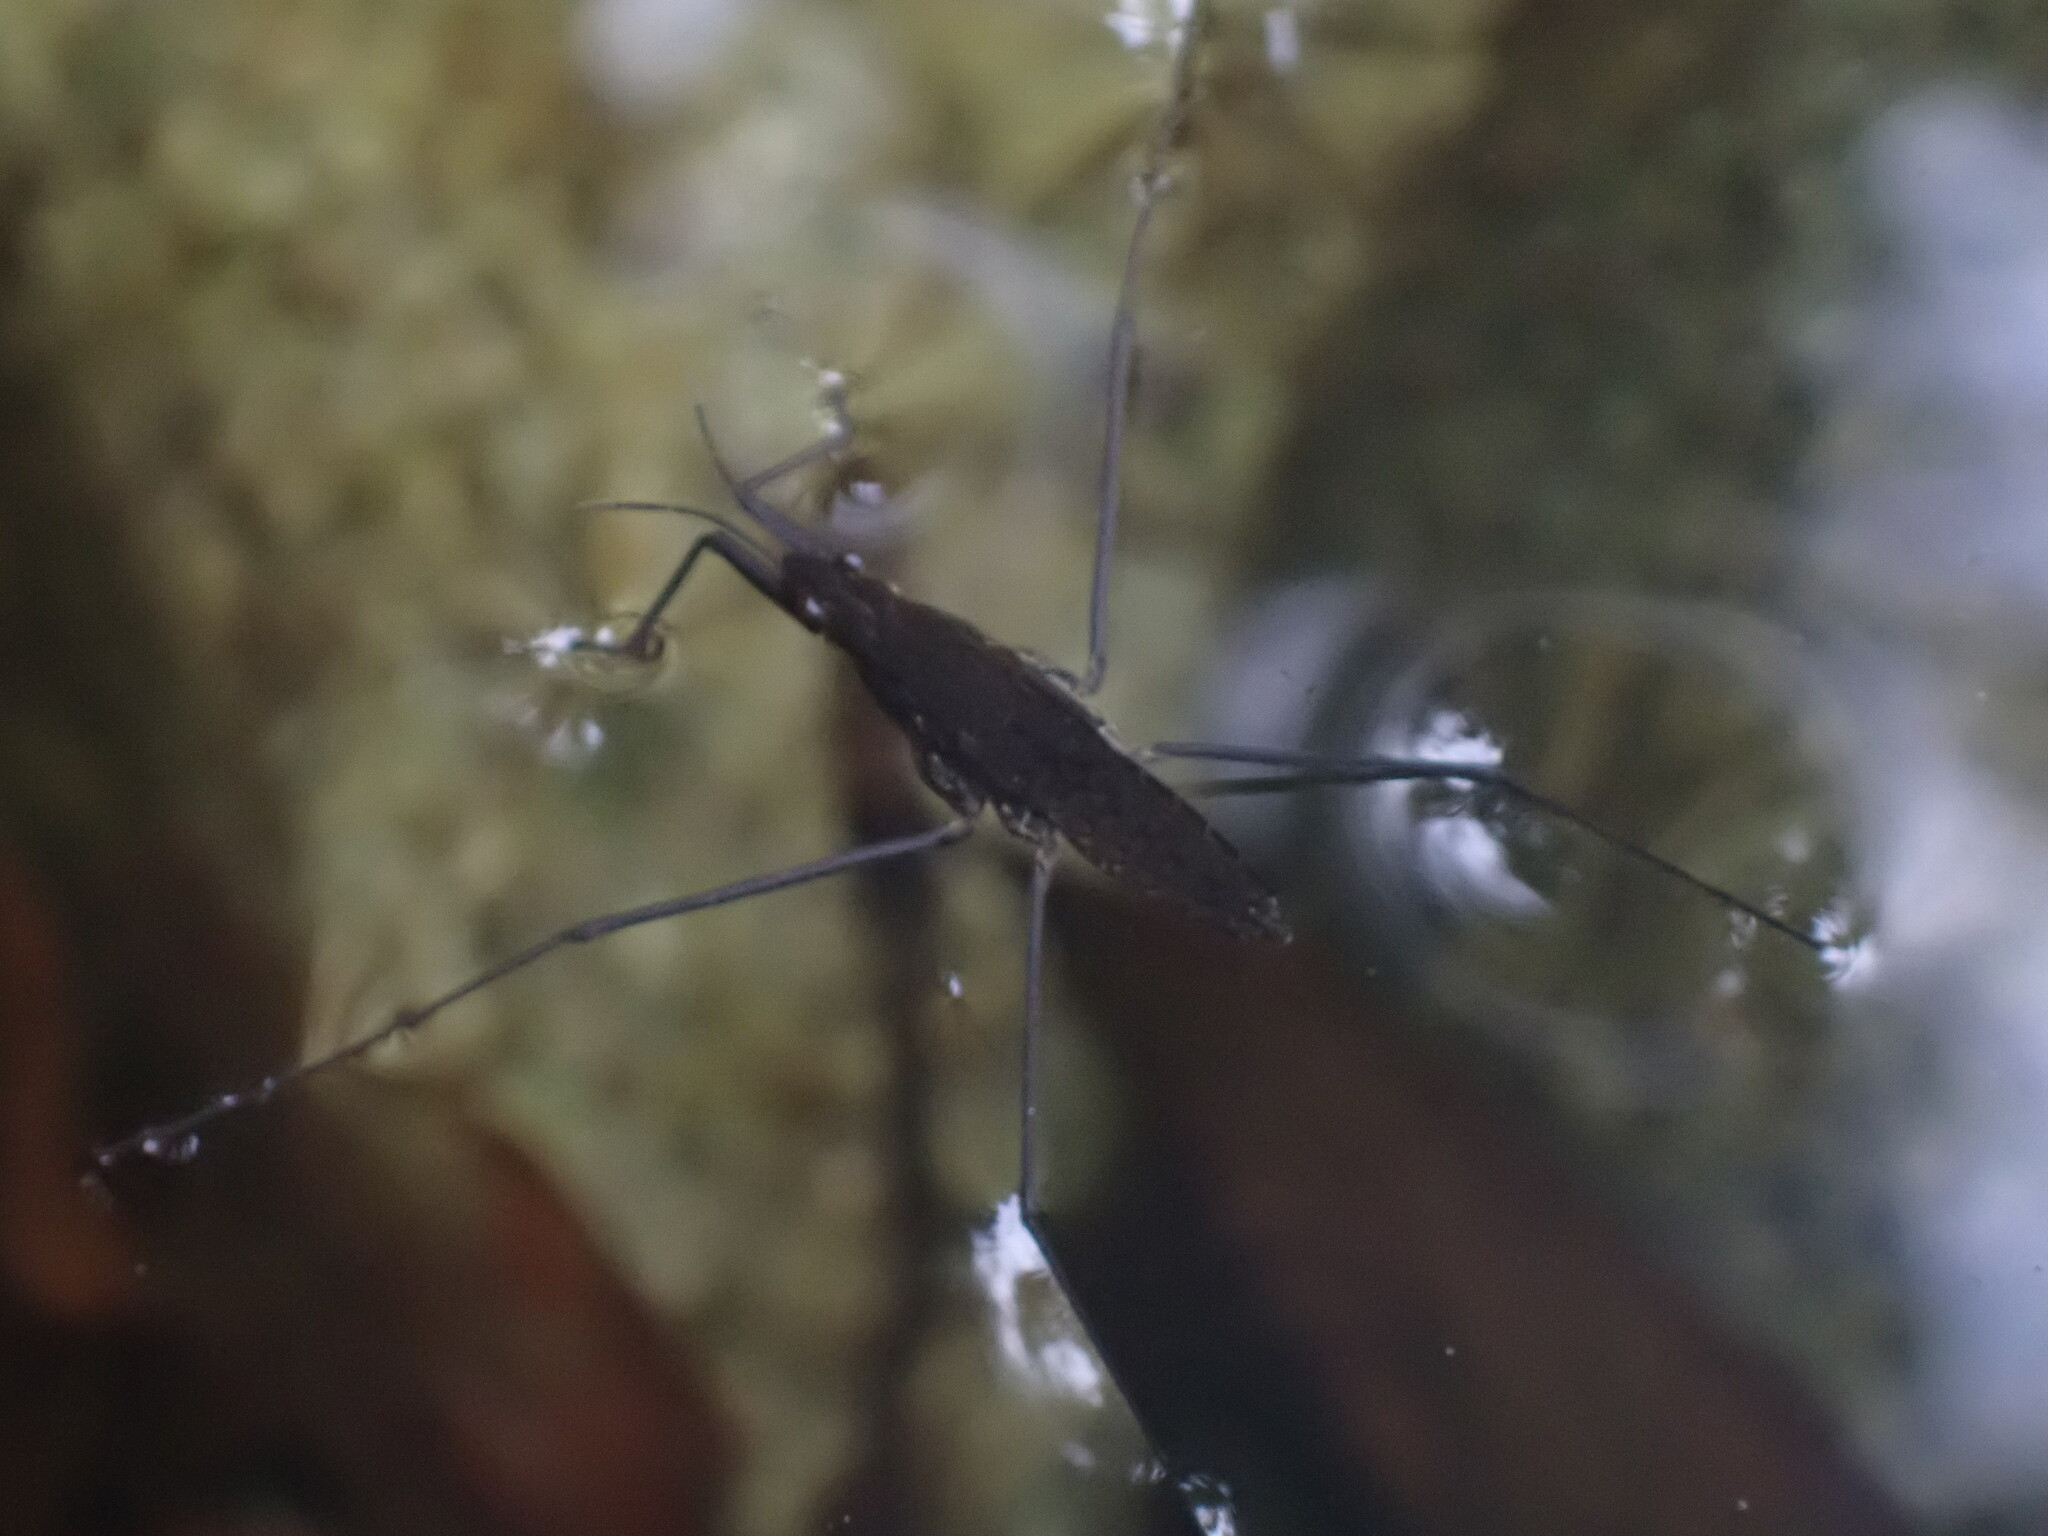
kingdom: Animalia
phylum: Arthropoda
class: Insecta
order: Hemiptera
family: Gerridae
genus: Aquarius
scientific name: Aquarius remigis
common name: Common water strider
